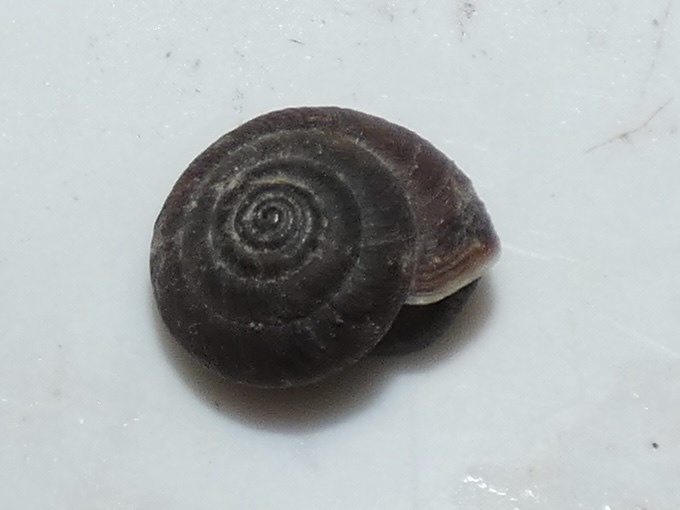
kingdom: Animalia
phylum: Mollusca
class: Gastropoda
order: Stylommatophora
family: Hygromiidae
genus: Trochulus
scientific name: Trochulus striolatus
